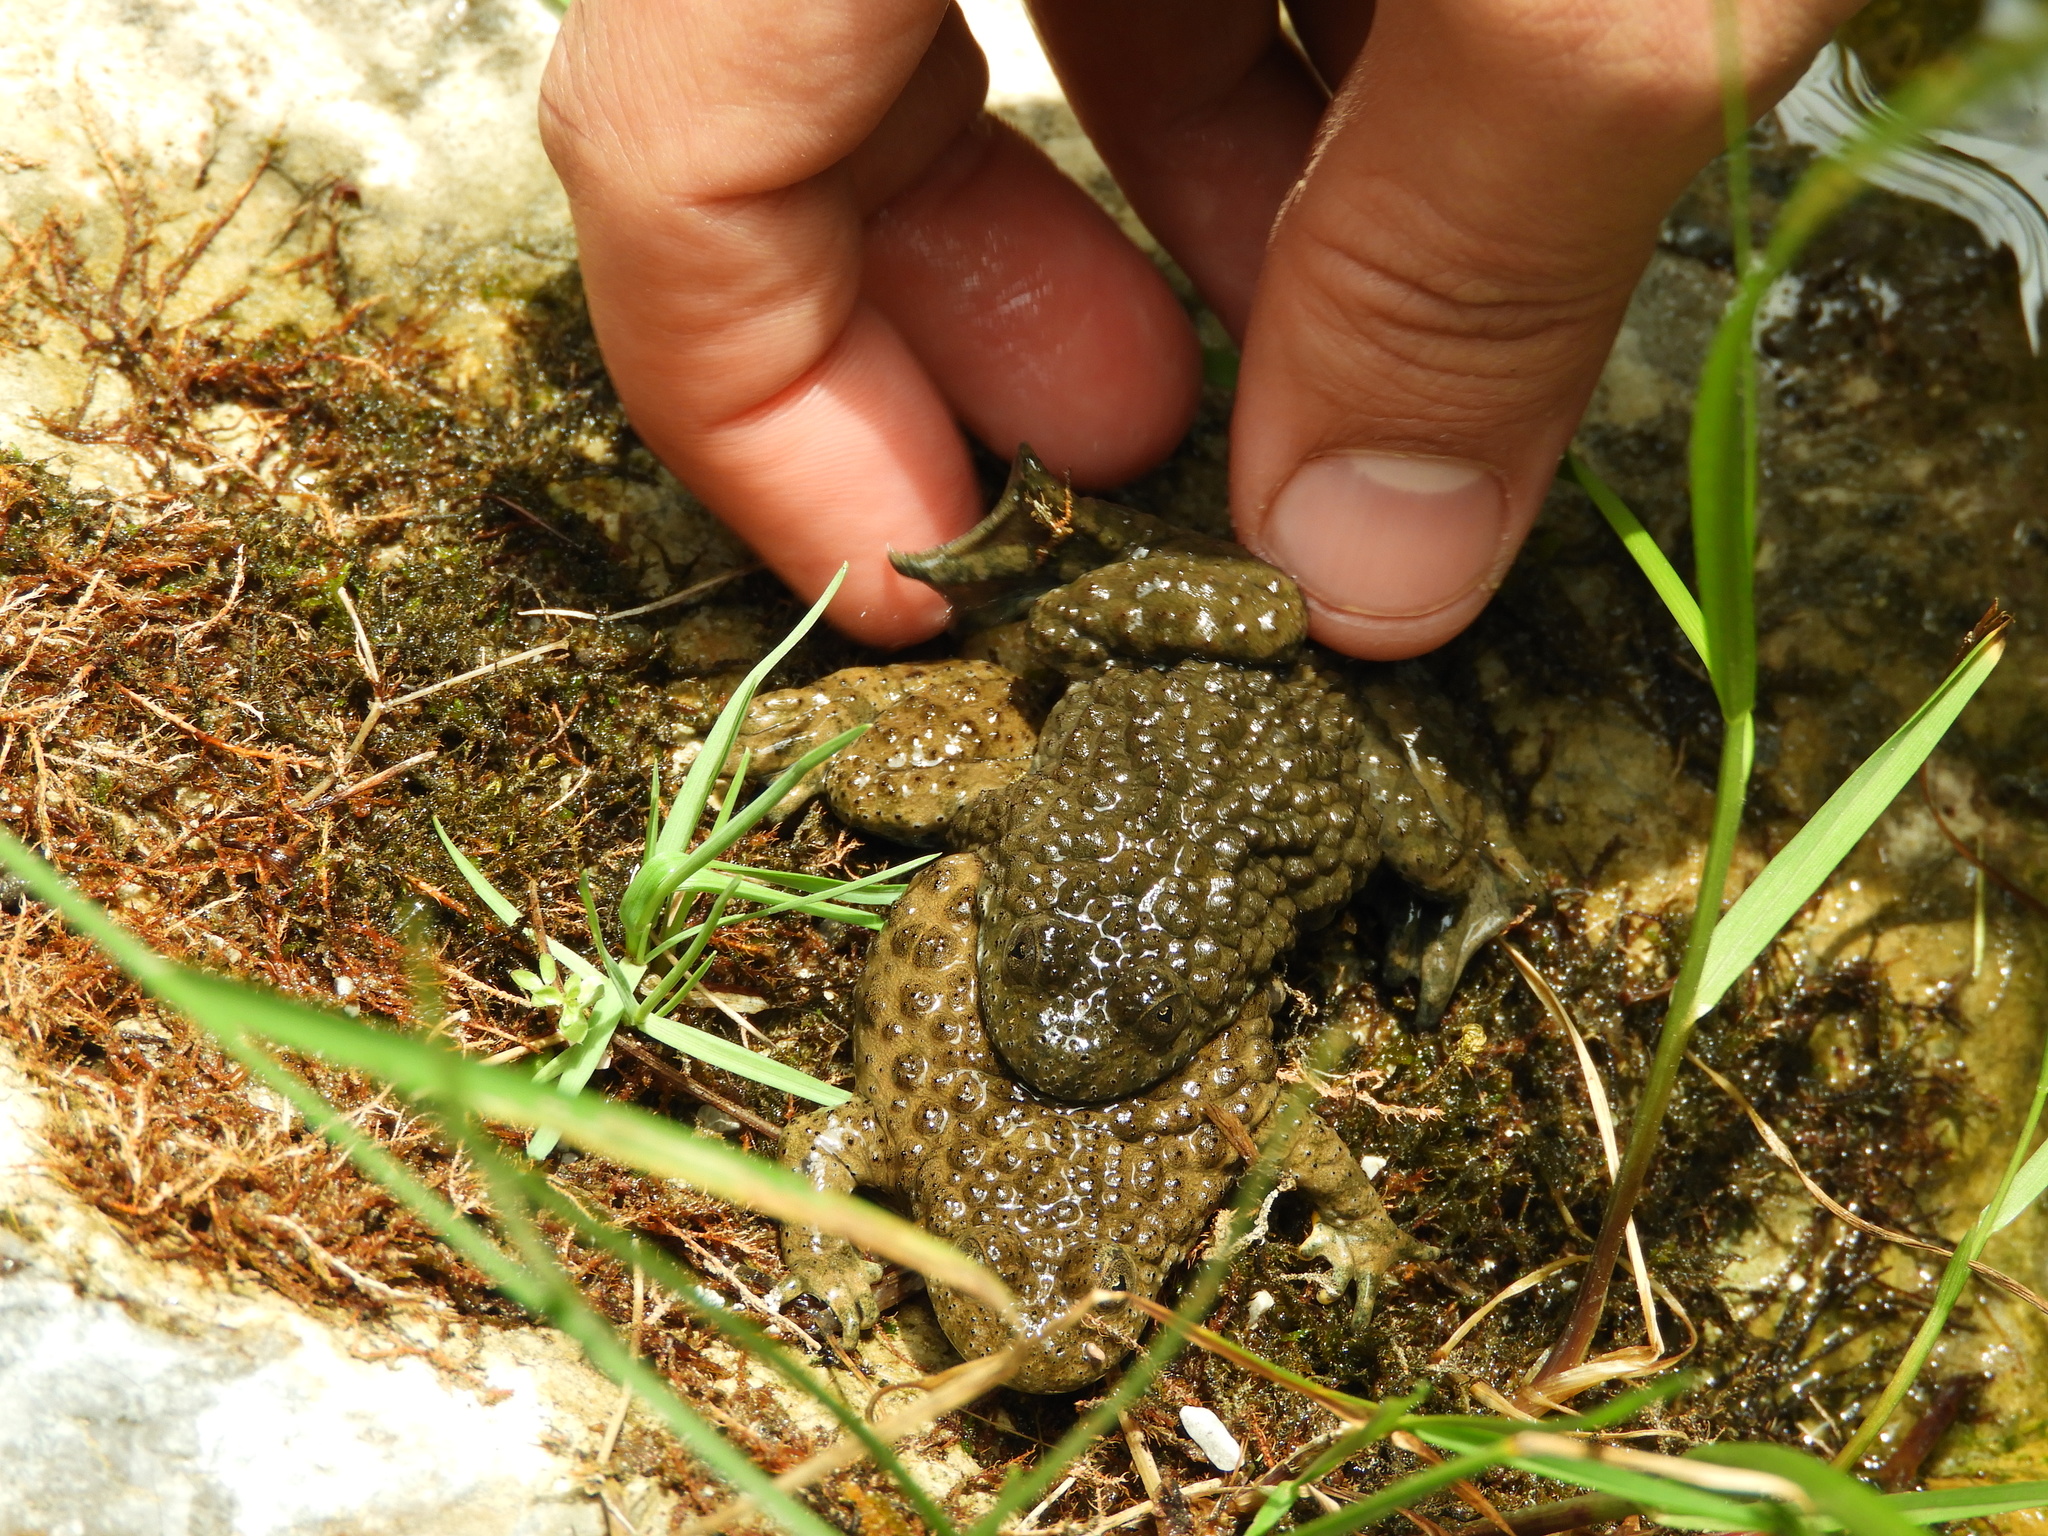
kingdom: Animalia
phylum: Chordata
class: Amphibia
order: Anura
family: Bombinatoridae
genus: Bombina
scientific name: Bombina variegata
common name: Yellow-bellied toad
